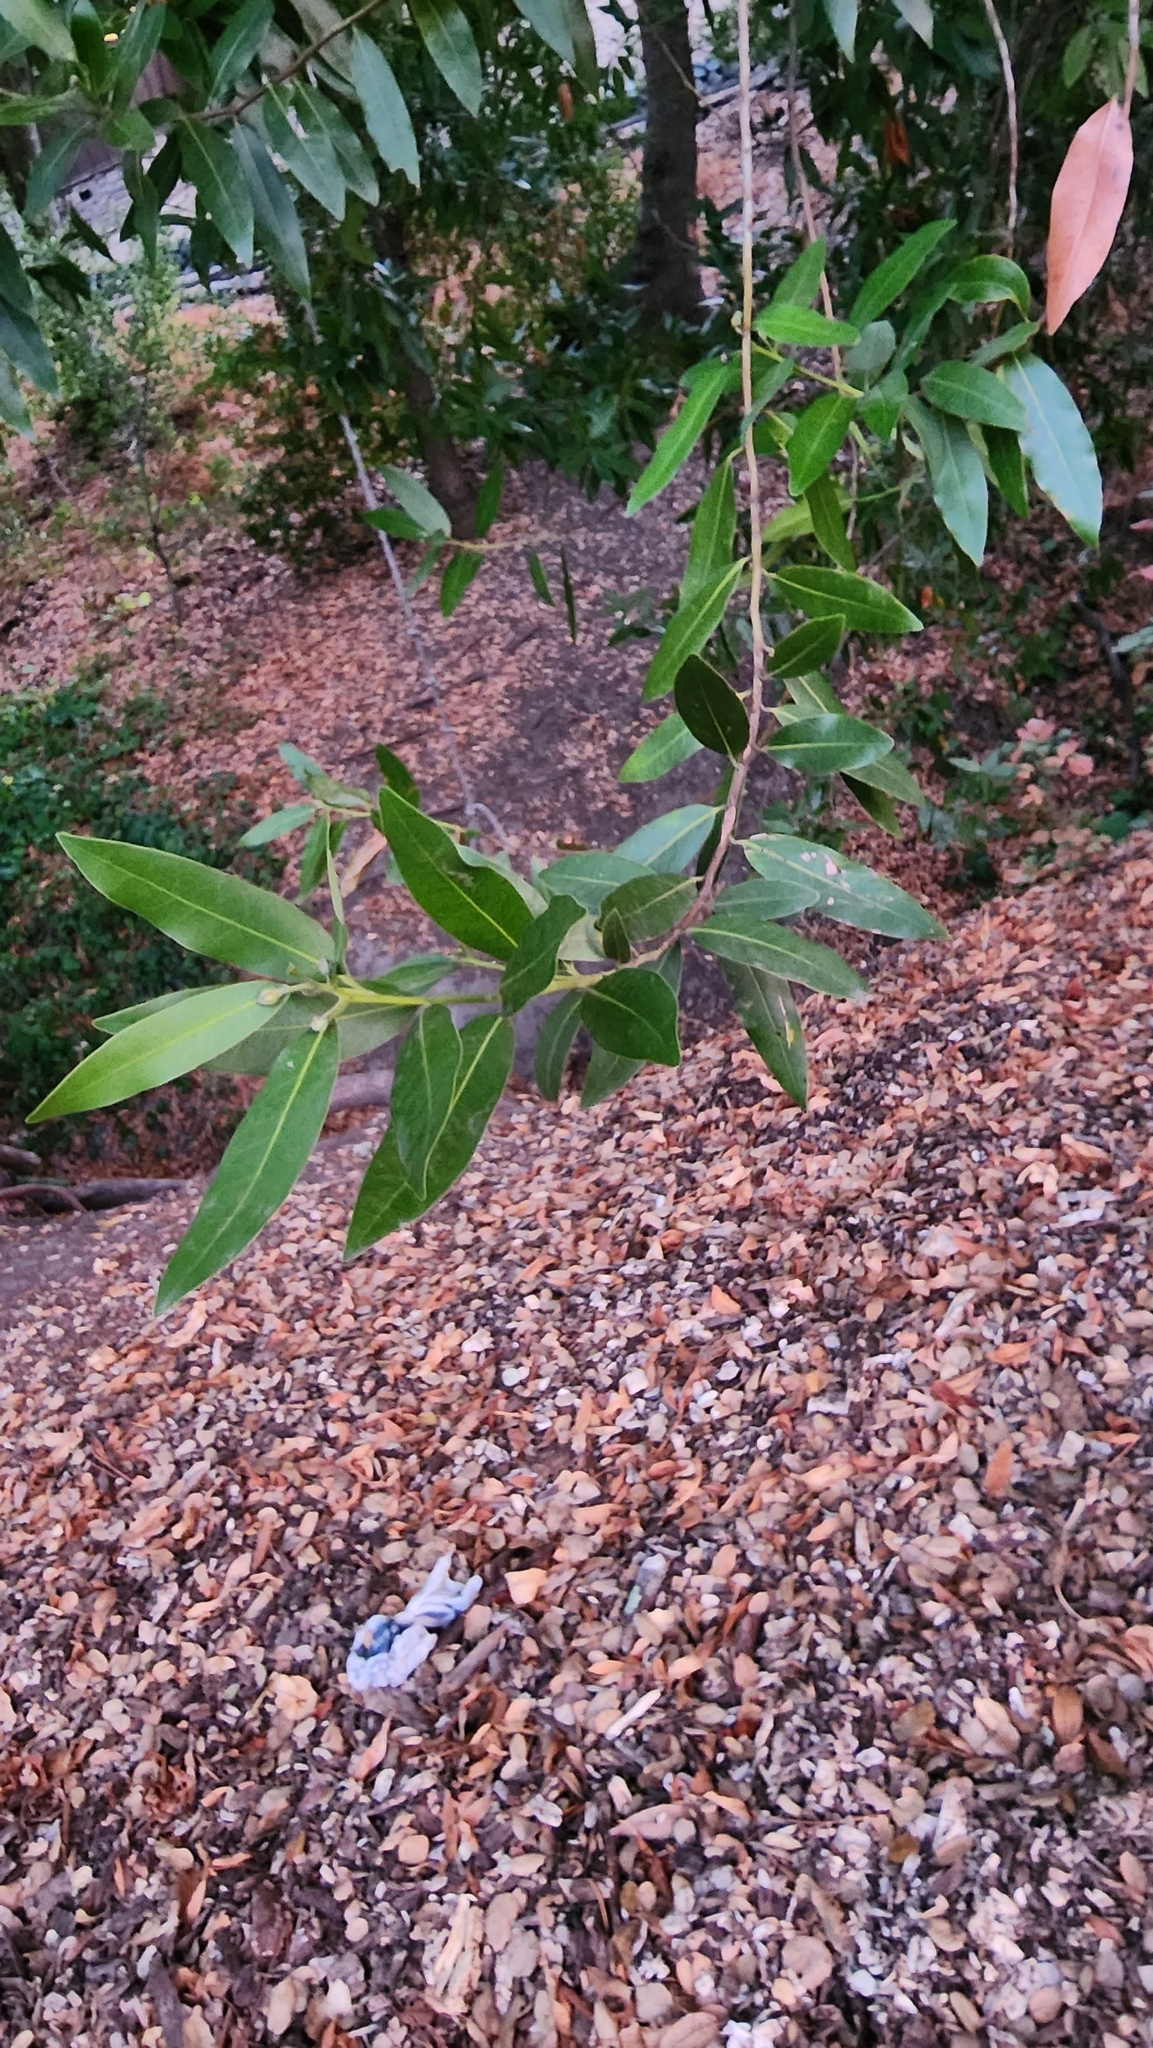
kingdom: Plantae
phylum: Tracheophyta
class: Magnoliopsida
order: Laurales
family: Lauraceae
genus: Umbellularia
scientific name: Umbellularia californica
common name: California bay
